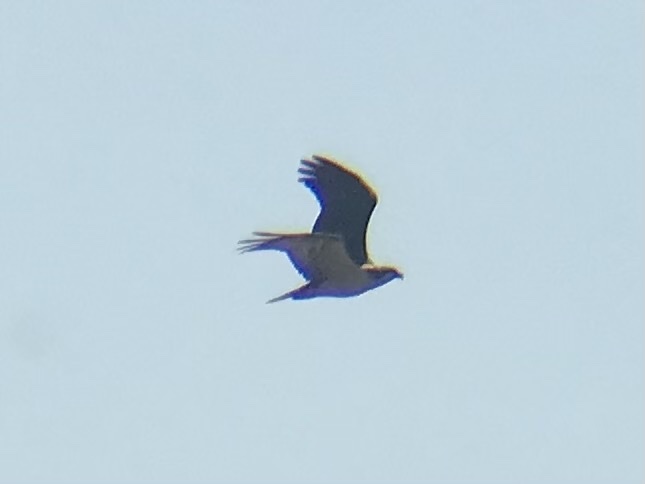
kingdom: Animalia
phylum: Chordata
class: Aves
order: Accipitriformes
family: Pandionidae
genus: Pandion
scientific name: Pandion haliaetus
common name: Osprey
